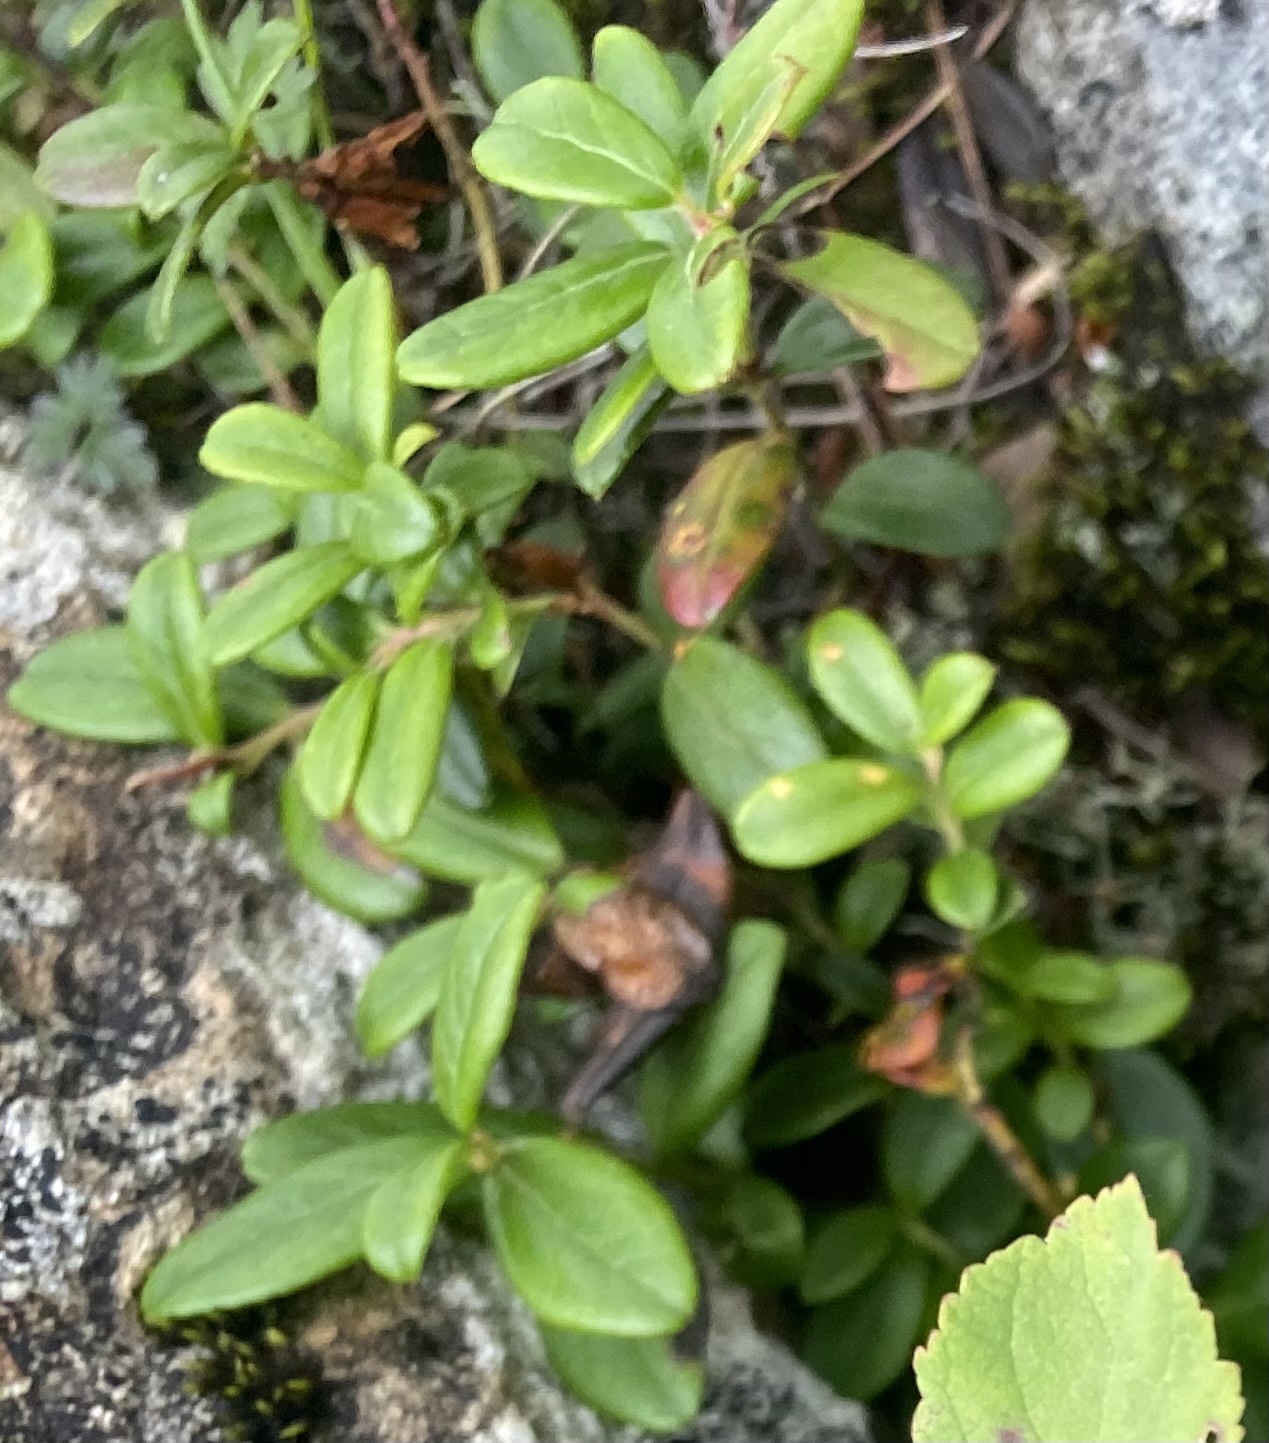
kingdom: Plantae
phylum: Tracheophyta
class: Magnoliopsida
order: Ericales
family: Ericaceae
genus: Vaccinium
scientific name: Vaccinium vitis-idaea
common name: Cowberry
